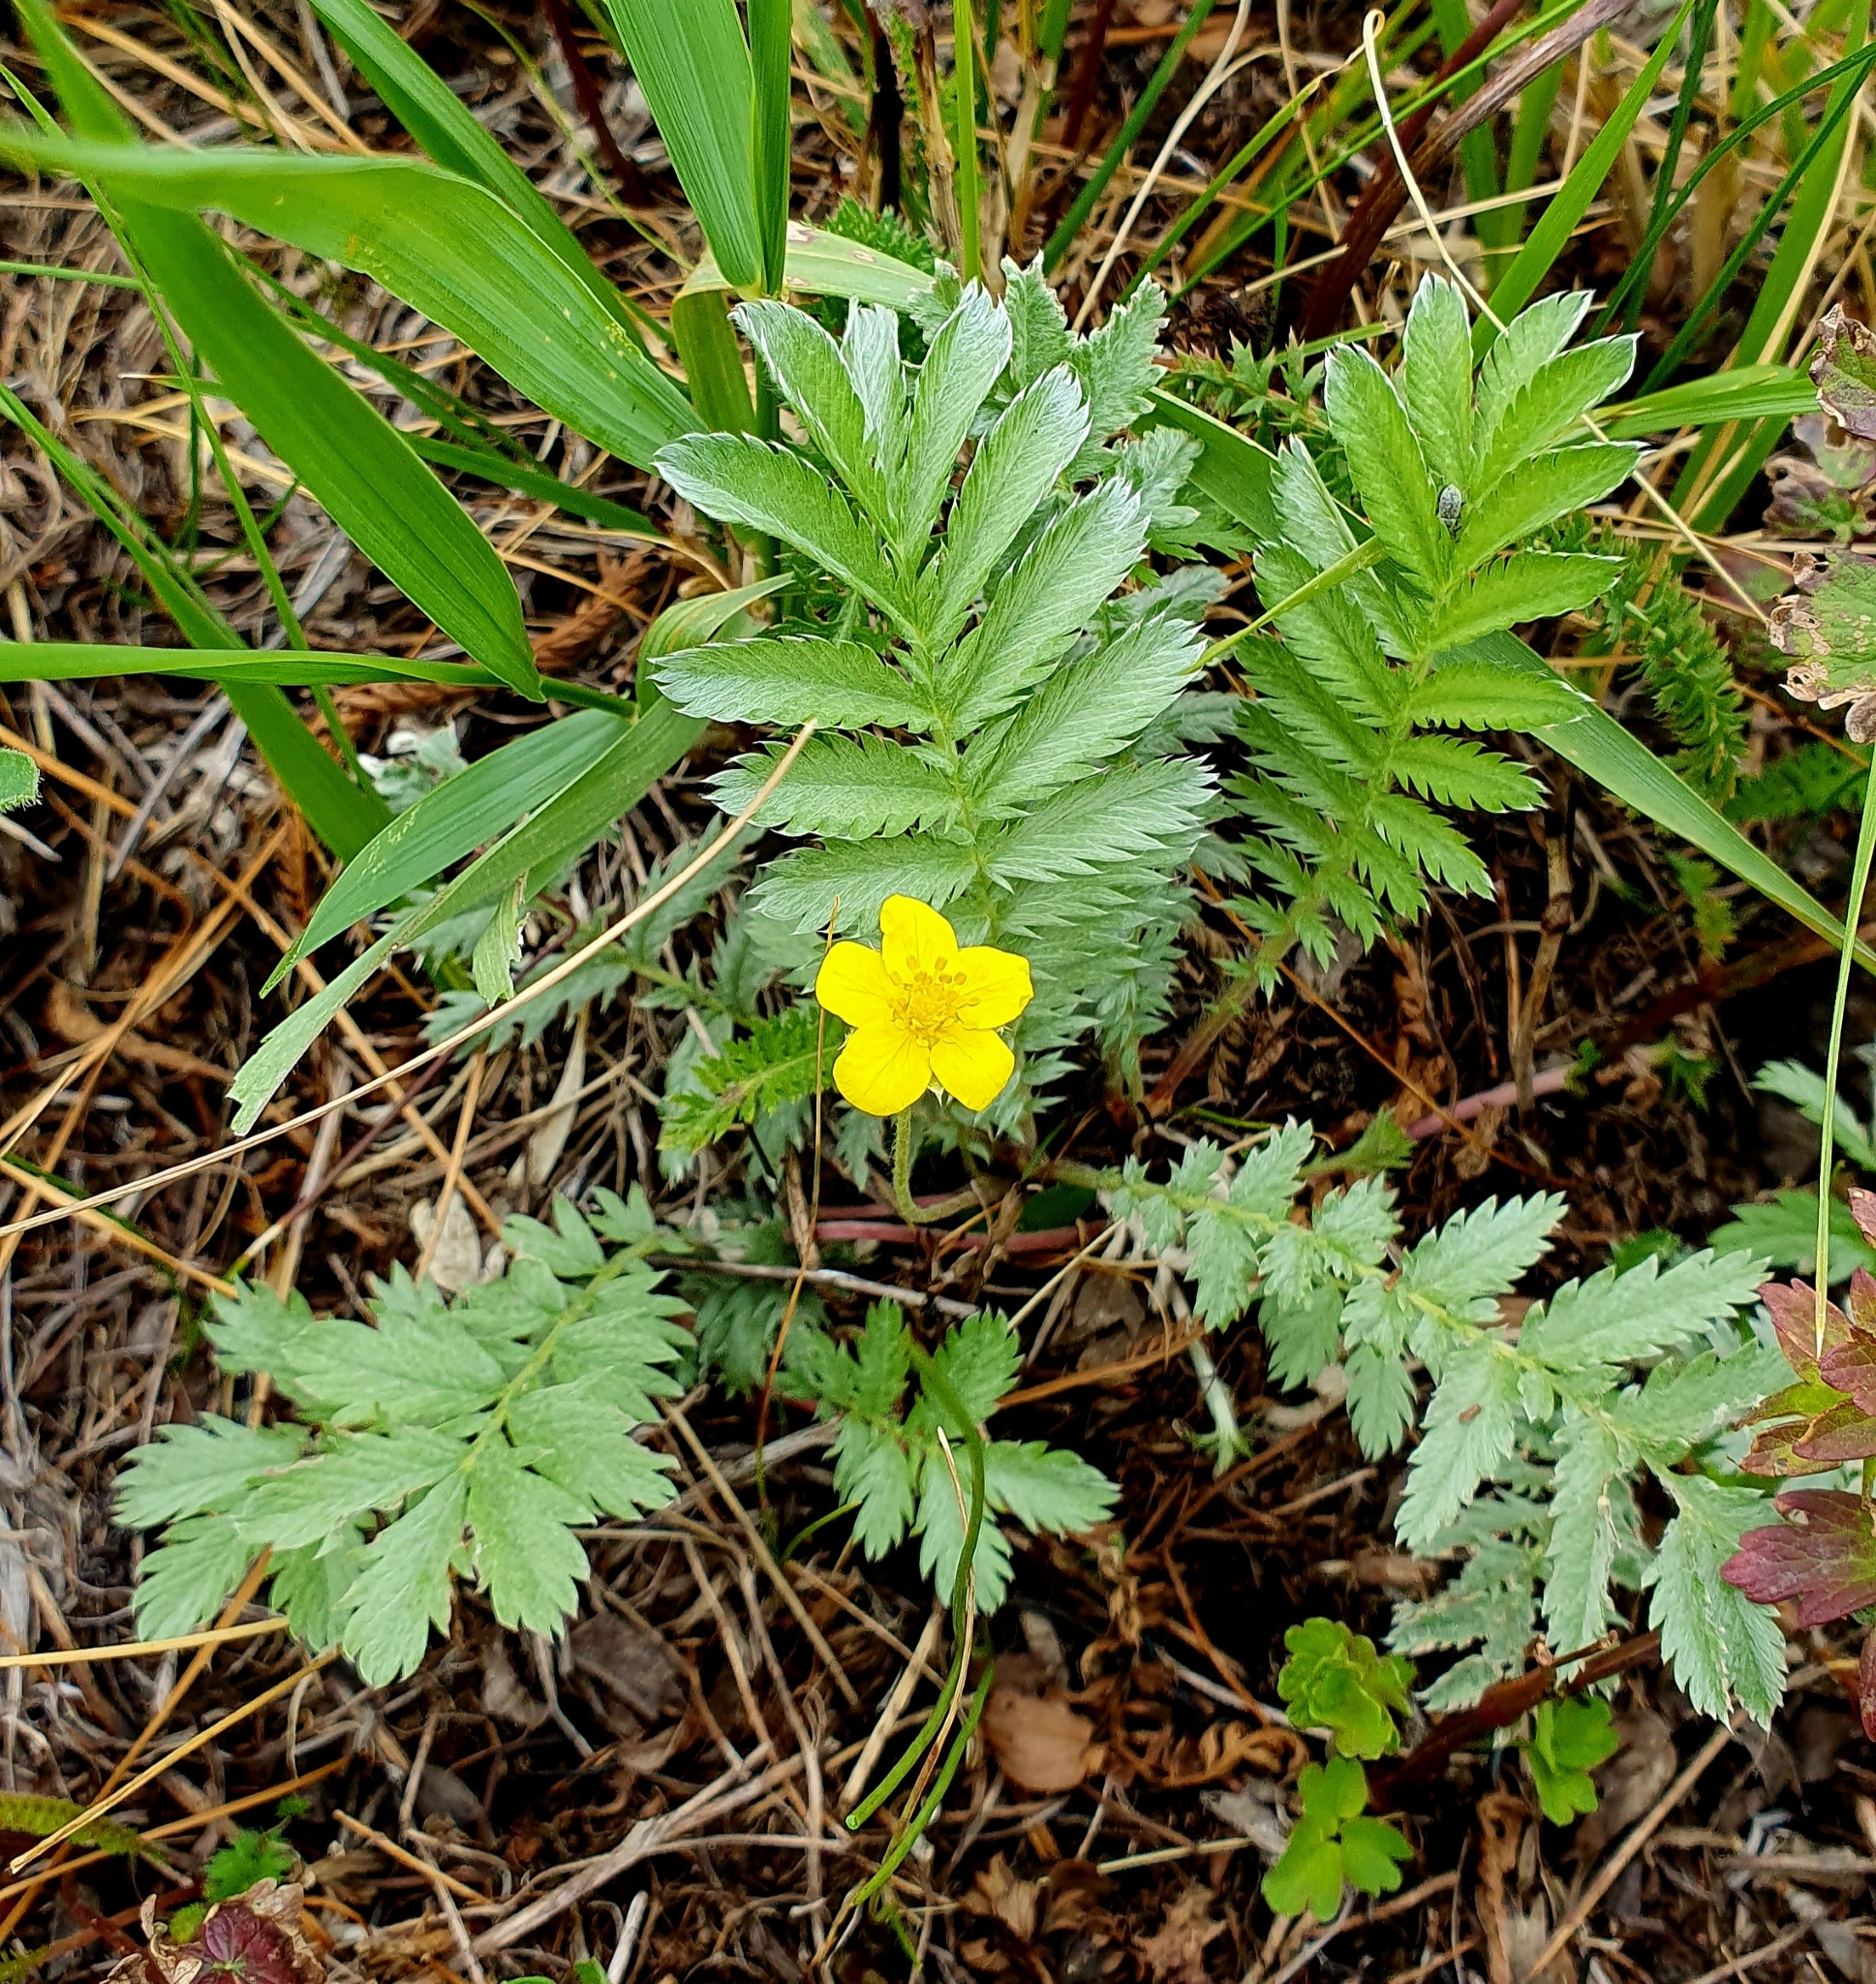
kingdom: Plantae
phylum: Tracheophyta
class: Magnoliopsida
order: Rosales
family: Rosaceae
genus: Argentina
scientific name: Argentina anserina
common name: Common silverweed
